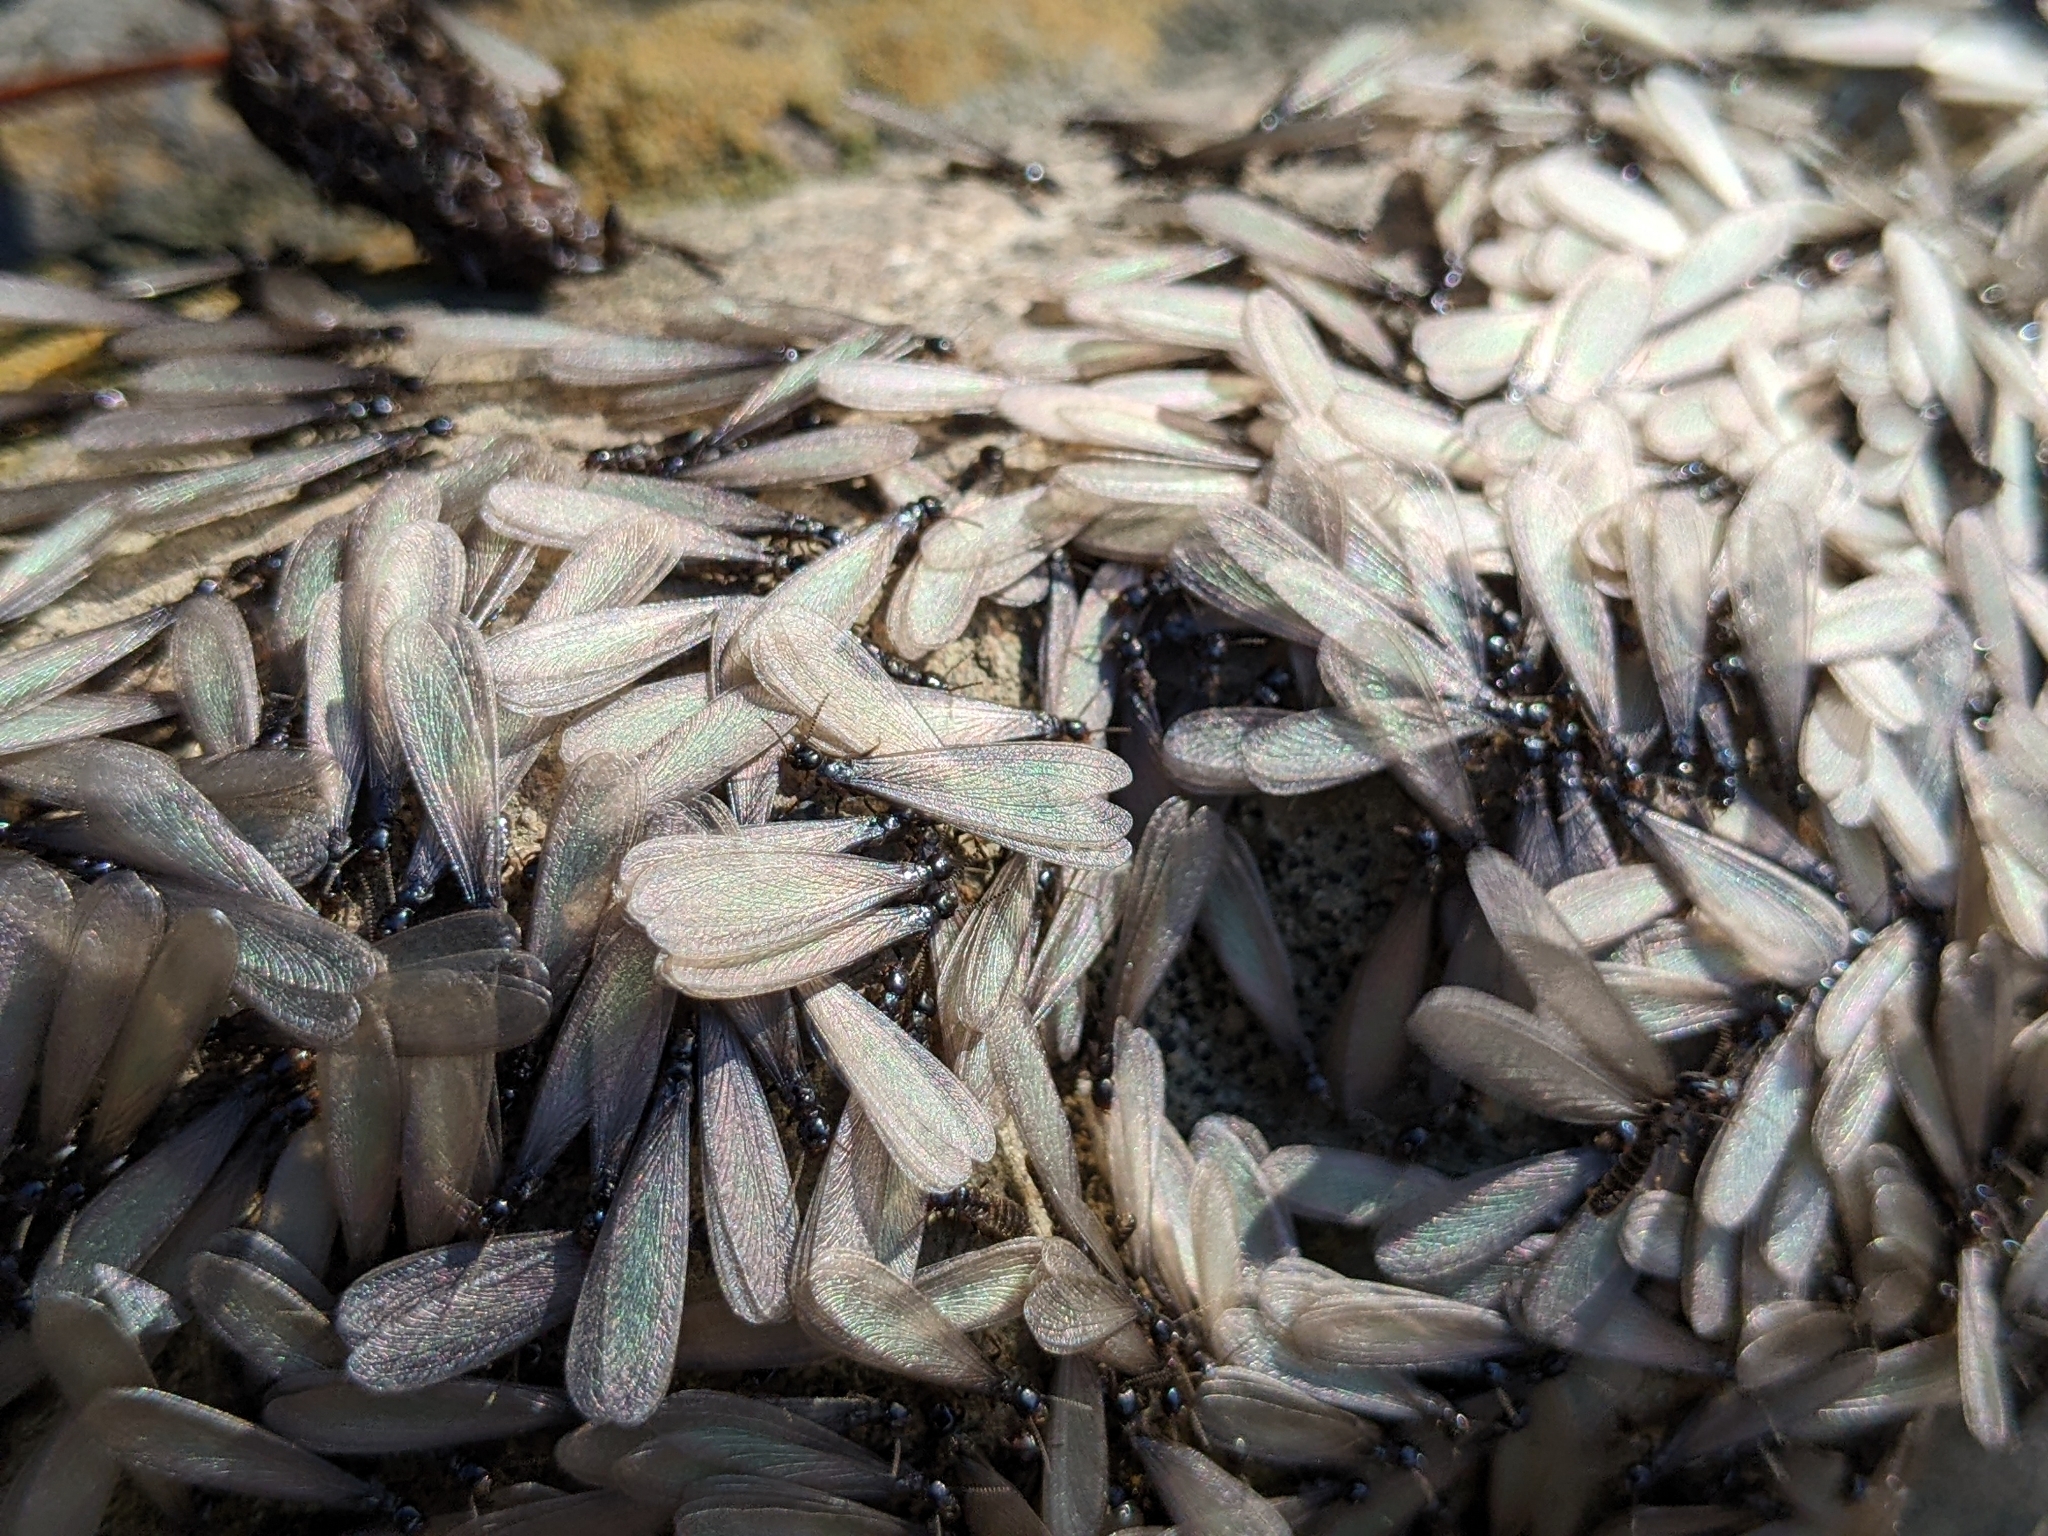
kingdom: Animalia
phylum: Arthropoda
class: Insecta
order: Blattodea
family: Rhinotermitidae
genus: Reticulitermes
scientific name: Reticulitermes hesperus
